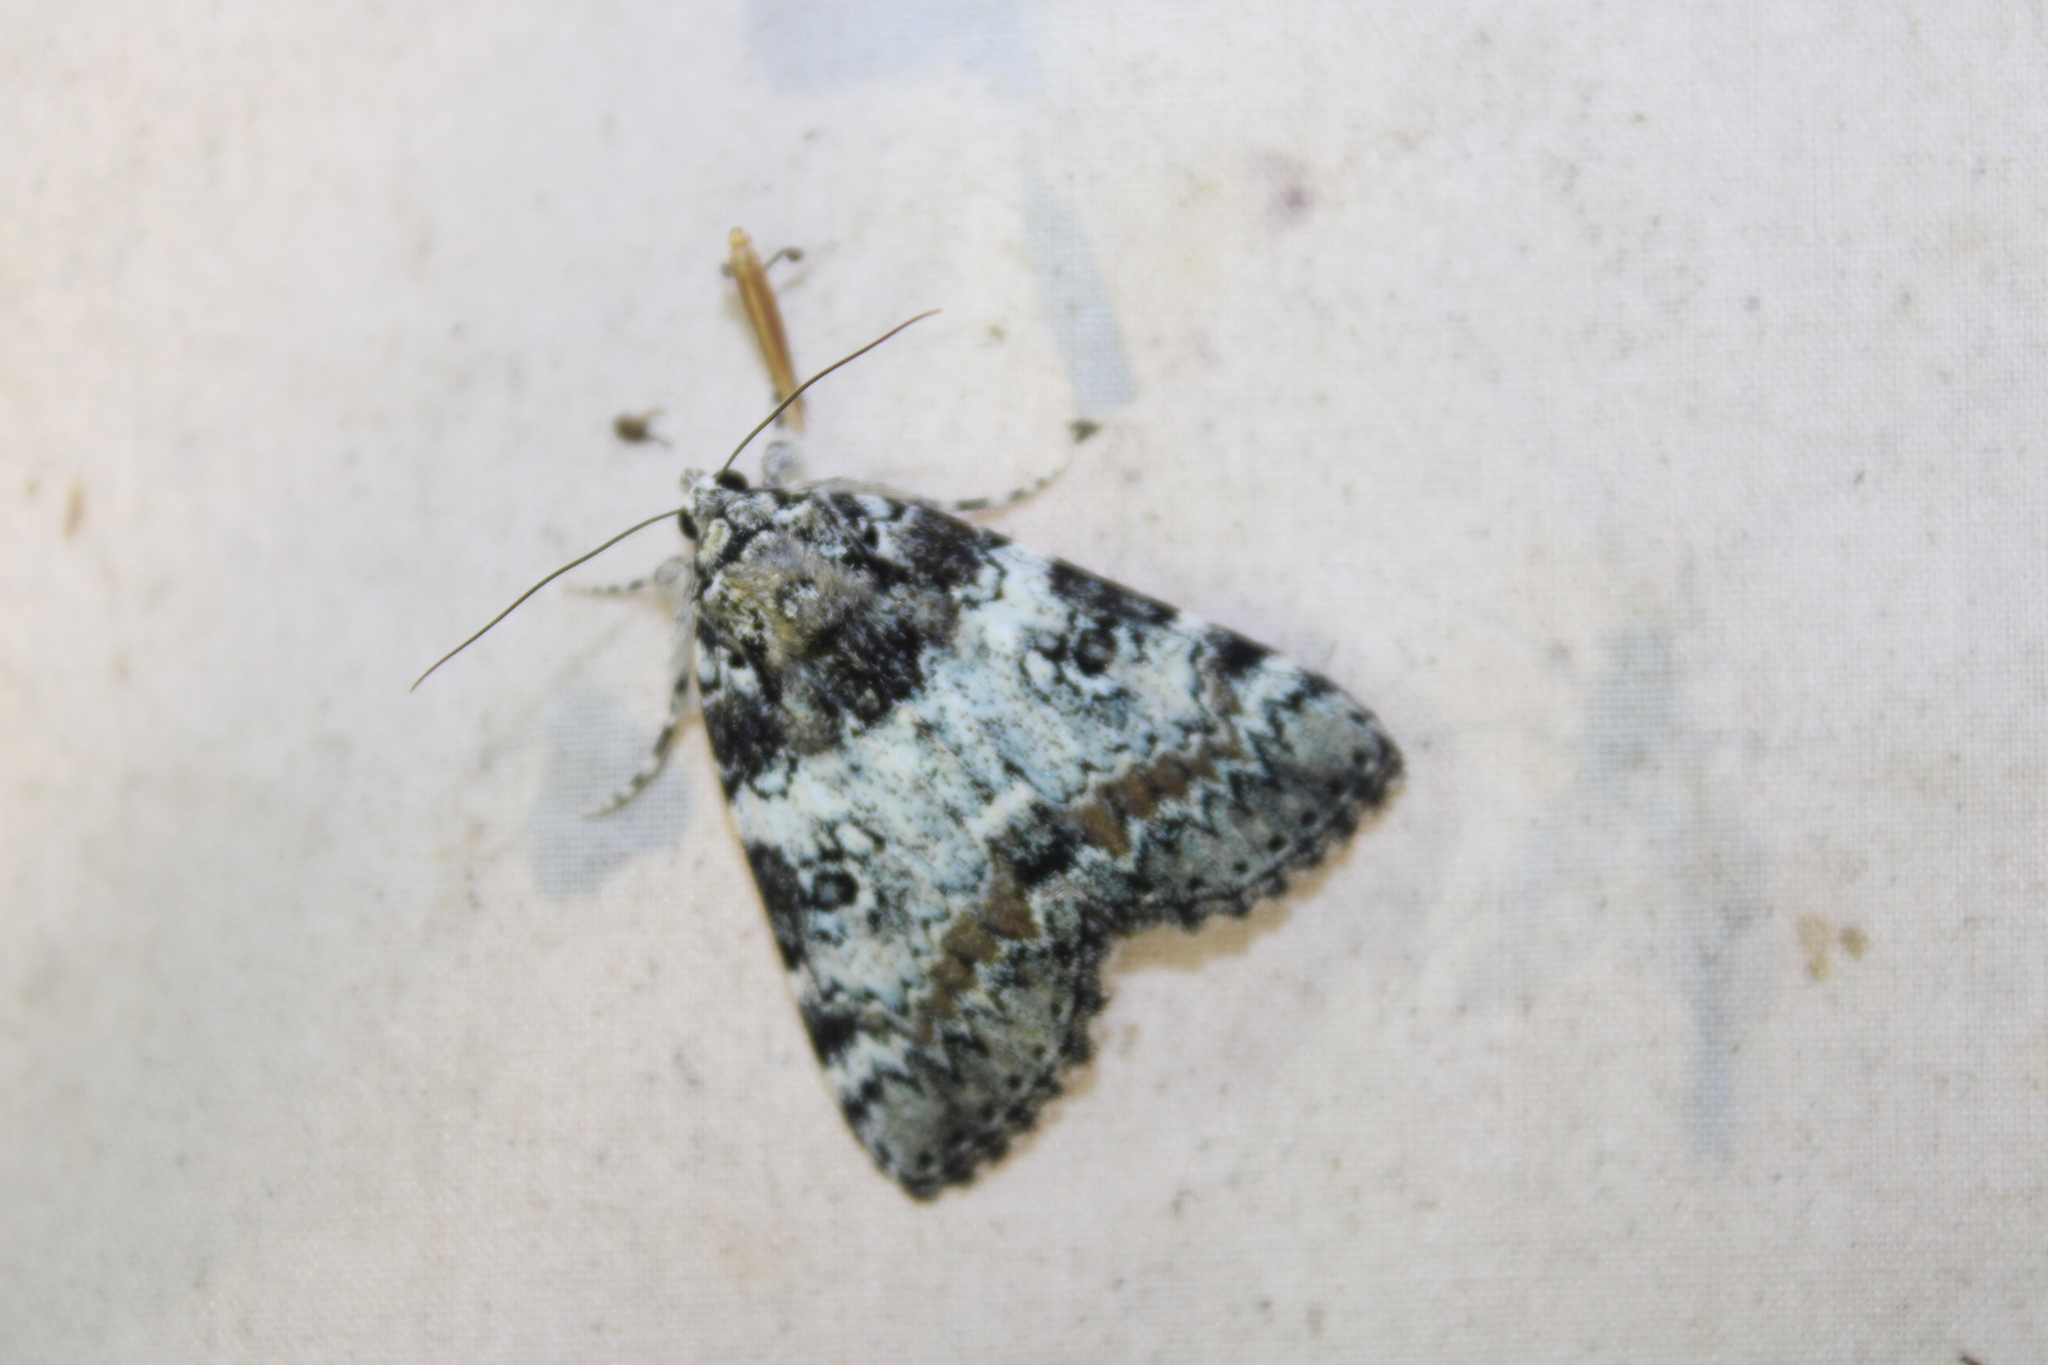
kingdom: Animalia
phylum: Arthropoda
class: Insecta
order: Lepidoptera
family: Erebidae
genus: Catocala
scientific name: Catocala connubialis
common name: Connubial underwing
